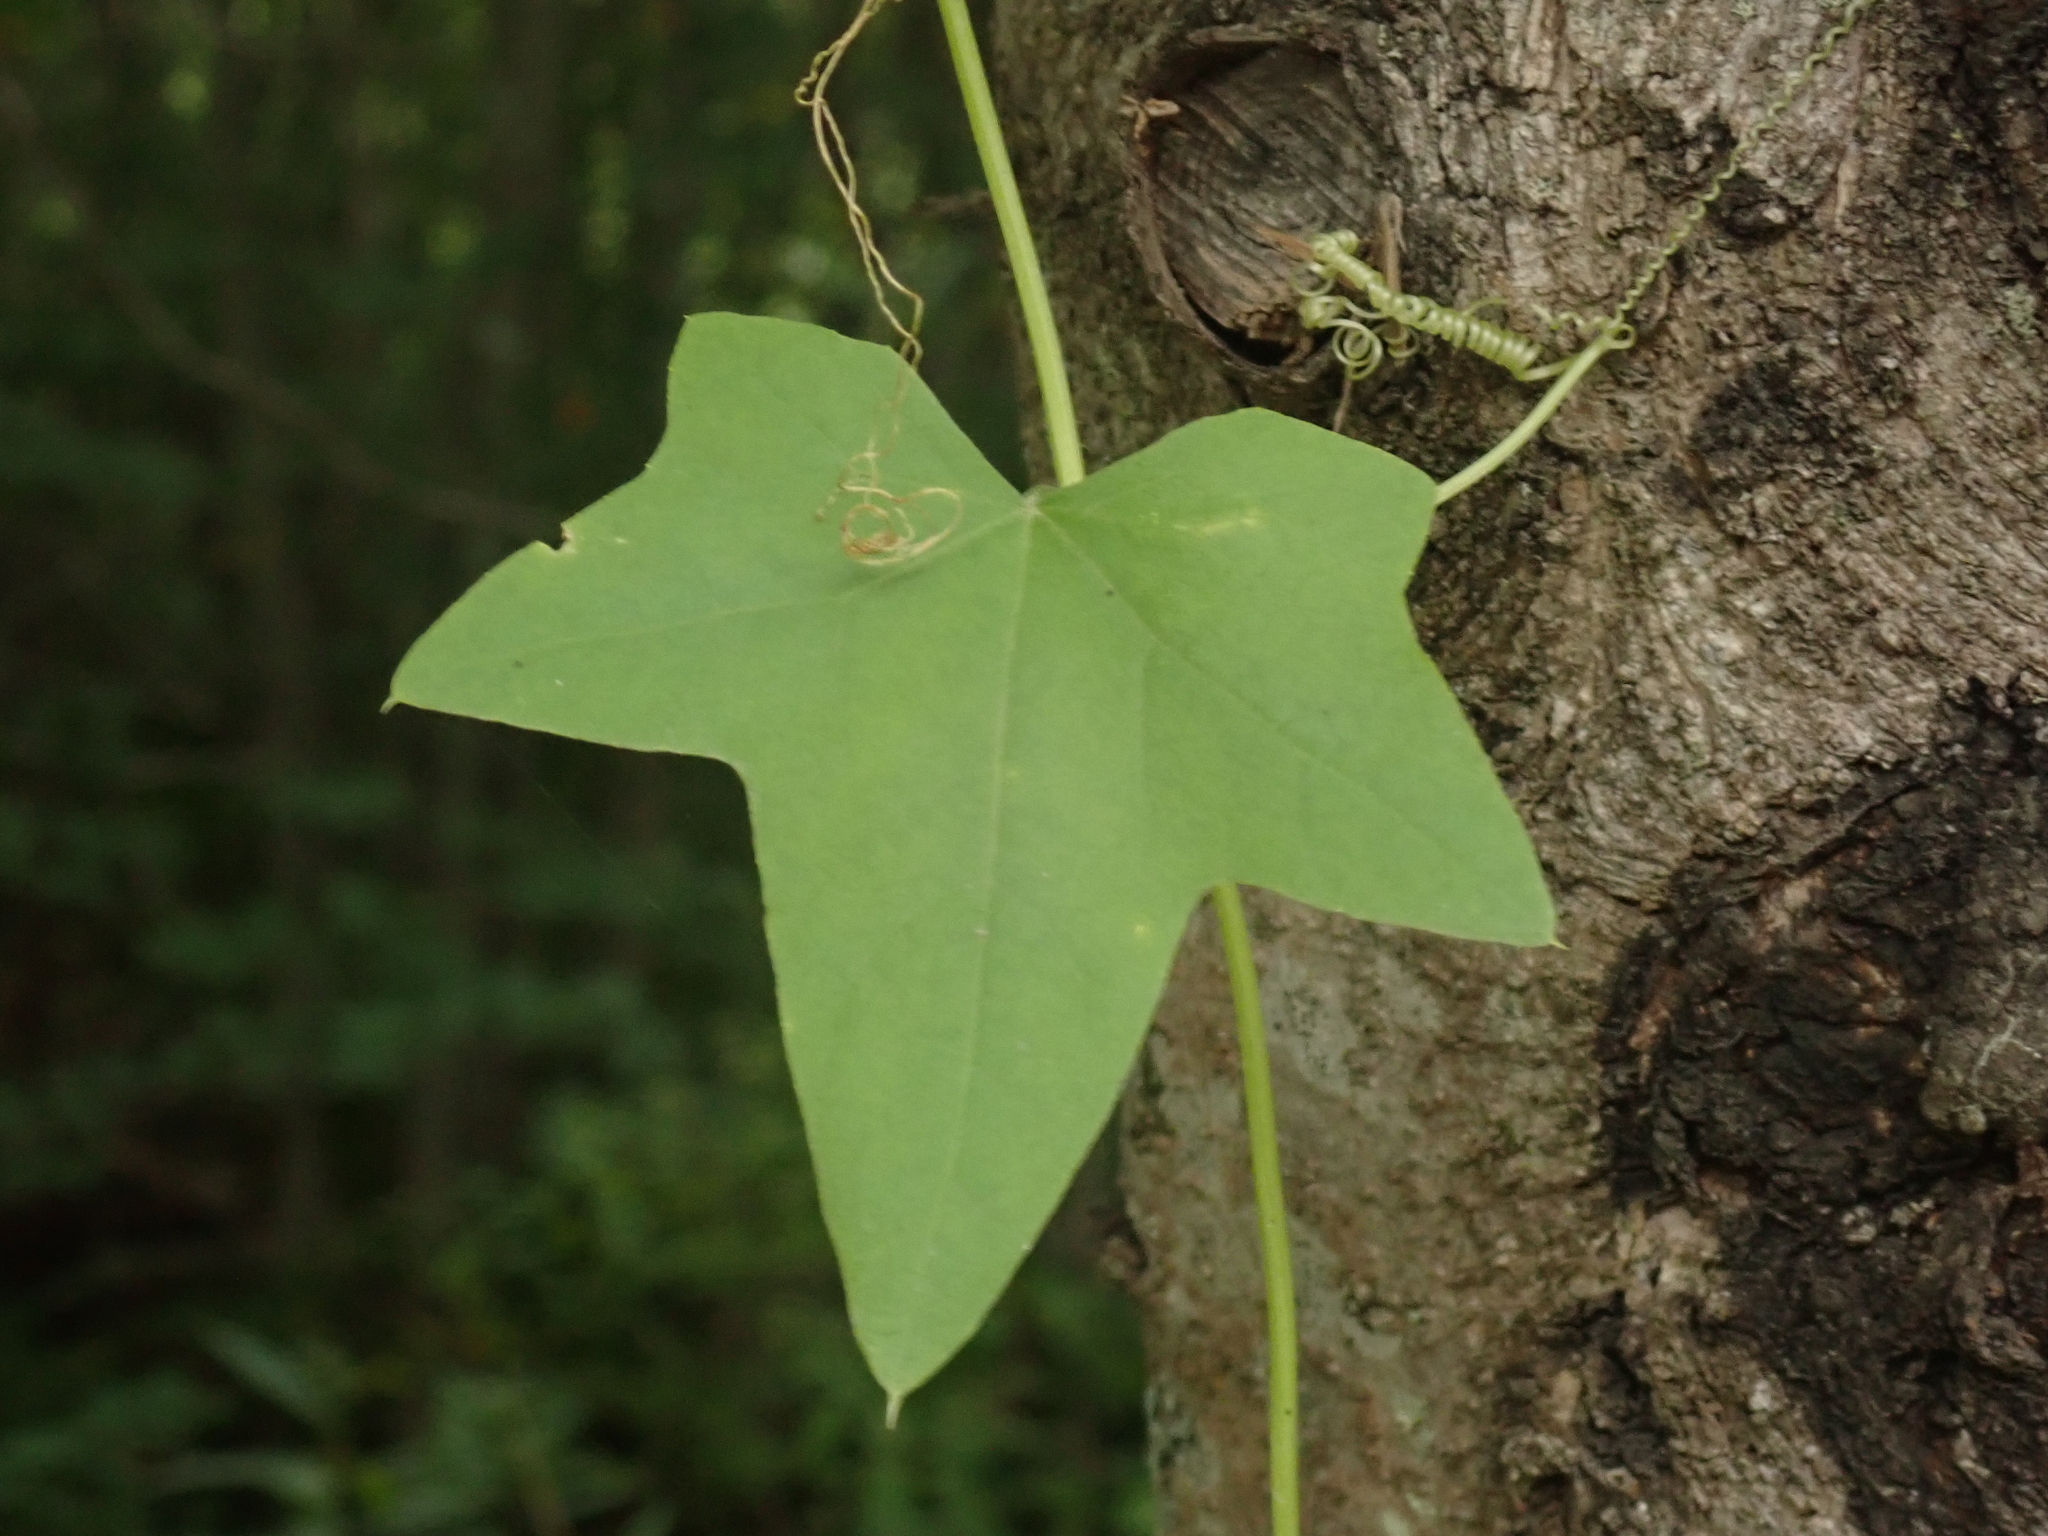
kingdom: Plantae
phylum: Tracheophyta
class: Magnoliopsida
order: Cucurbitales
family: Cucurbitaceae
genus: Echinocystis
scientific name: Echinocystis lobata
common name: Wild cucumber
